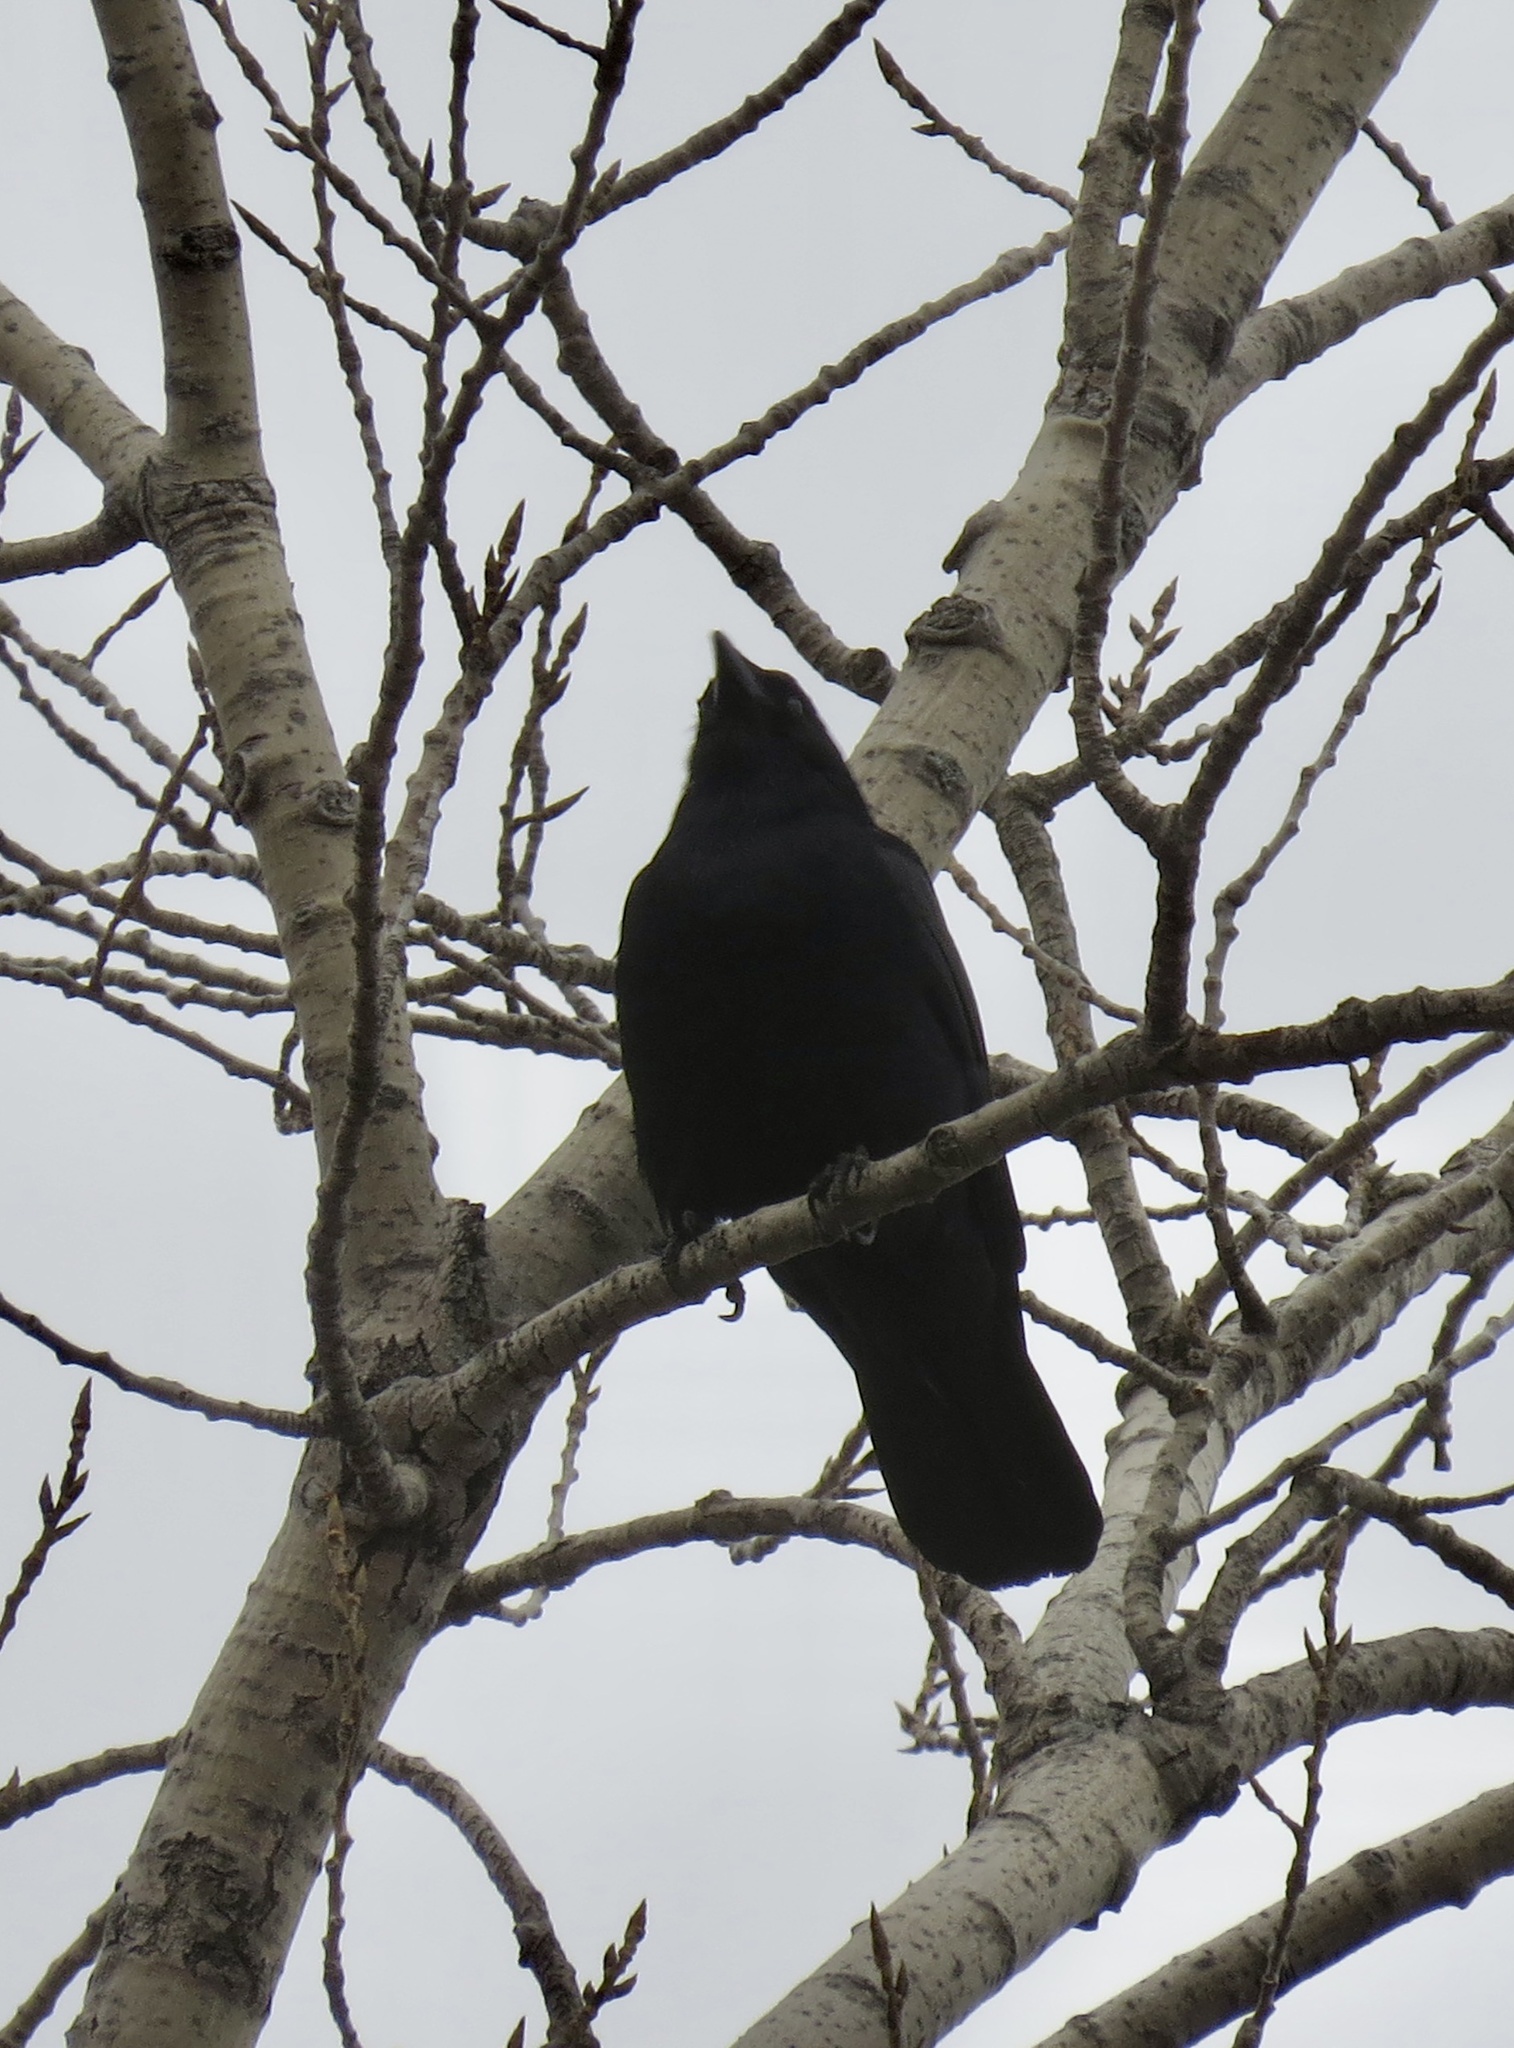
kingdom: Animalia
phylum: Chordata
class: Aves
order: Passeriformes
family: Corvidae
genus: Corvus
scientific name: Corvus
